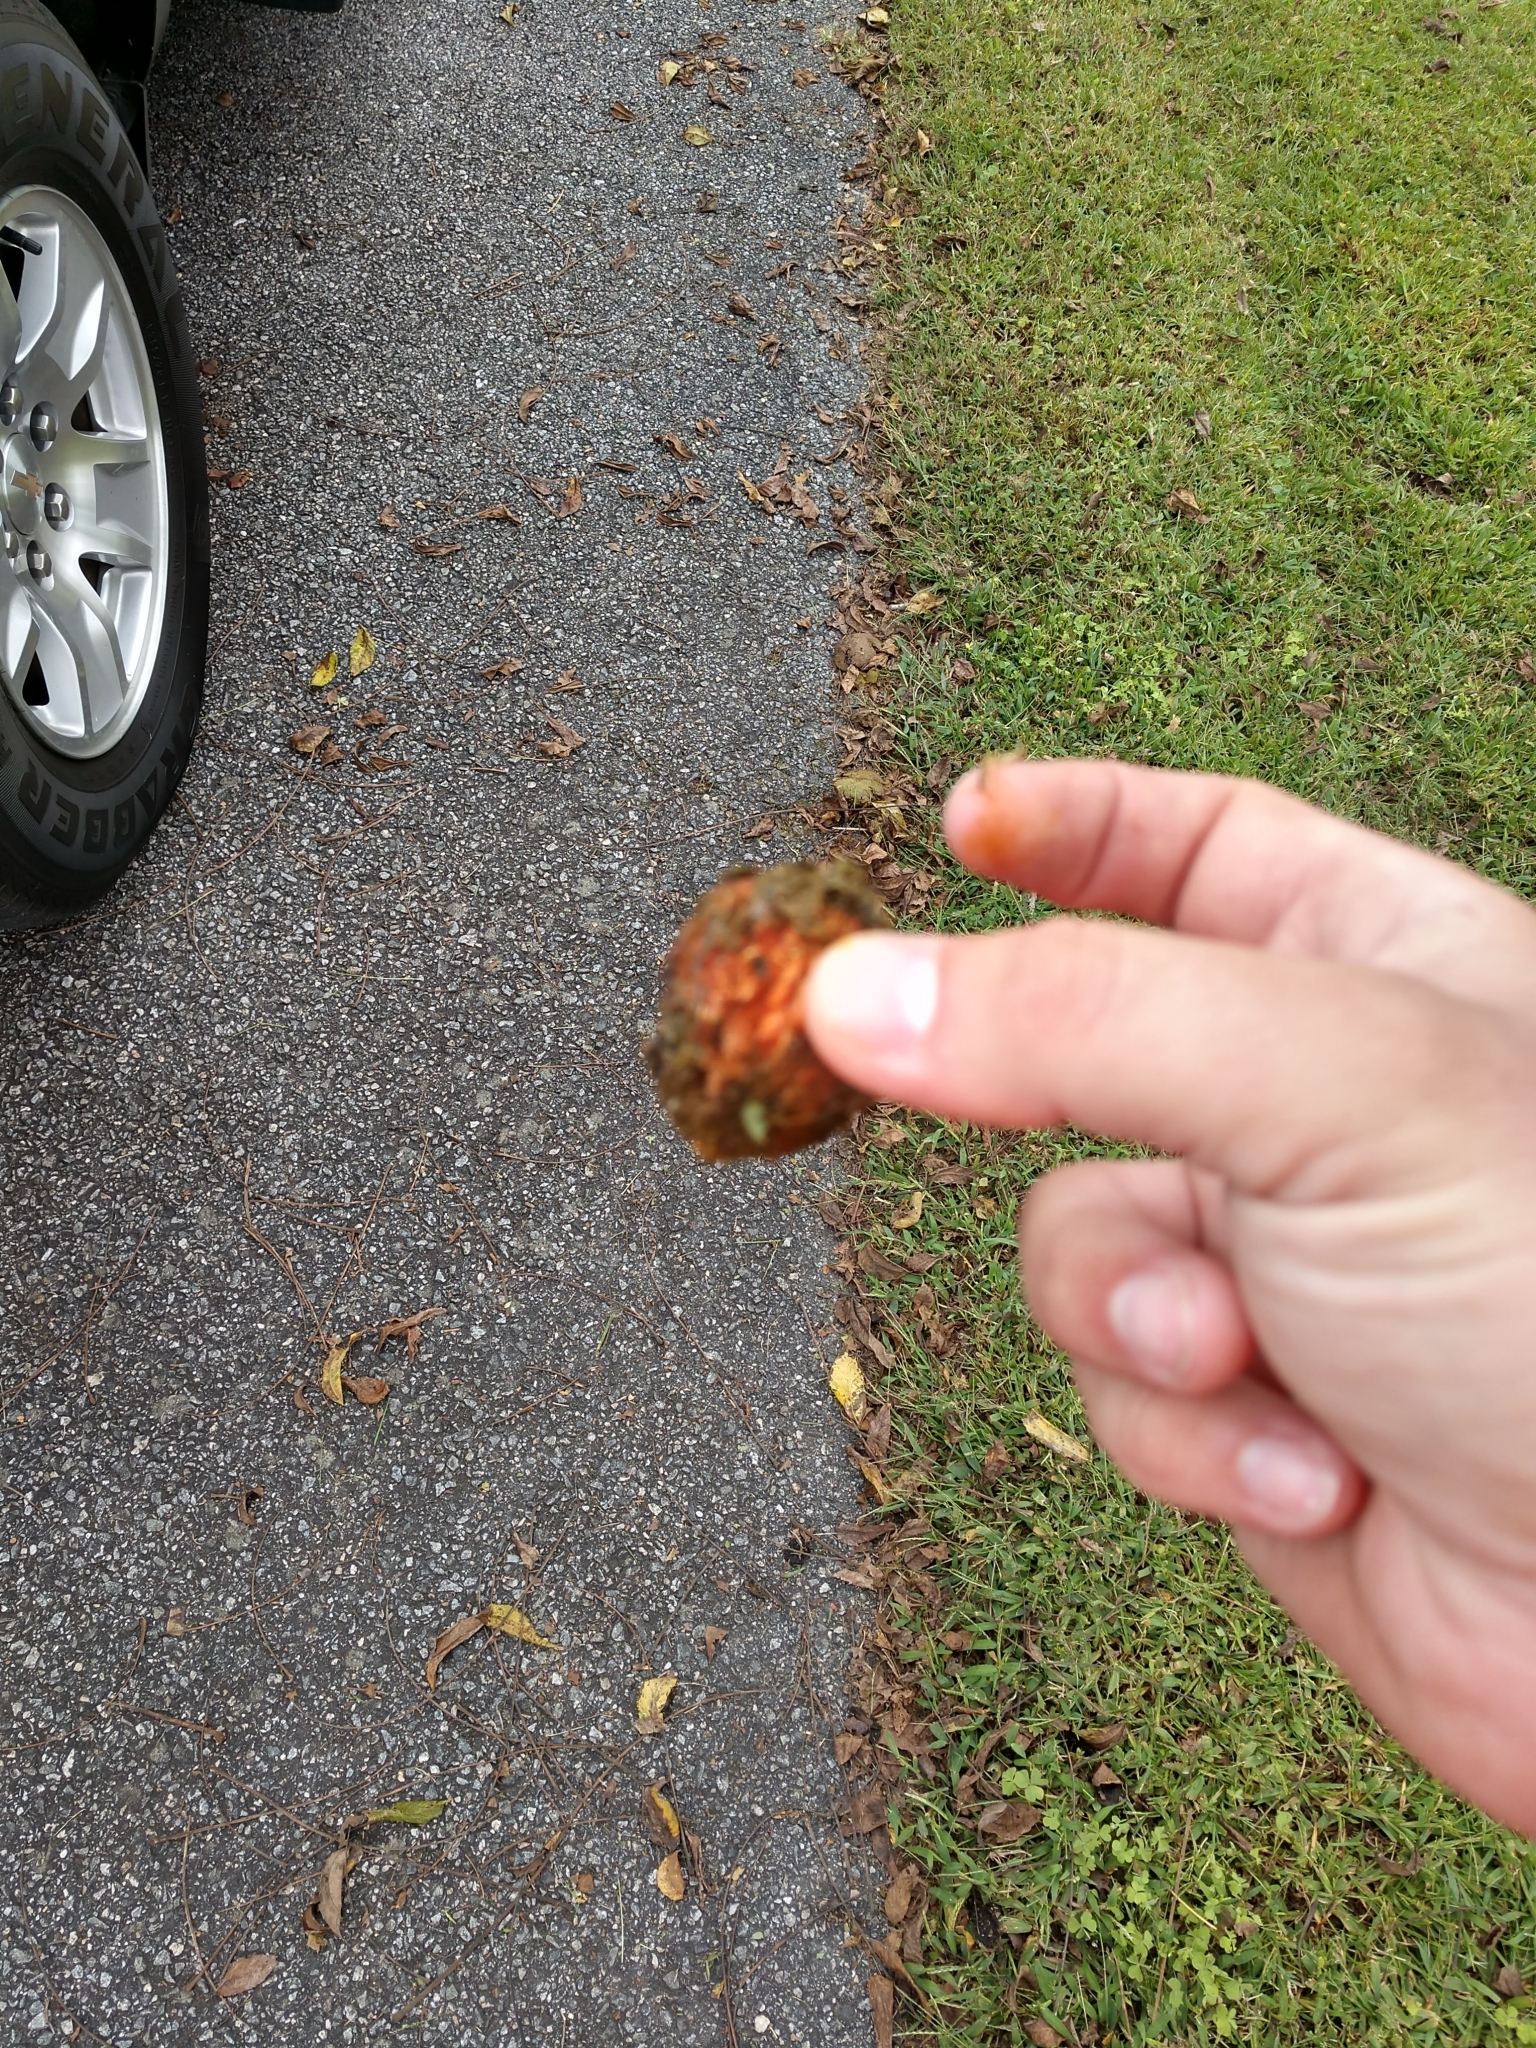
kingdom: Plantae
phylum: Tracheophyta
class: Magnoliopsida
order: Fagales
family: Juglandaceae
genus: Juglans
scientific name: Juglans nigra
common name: Black walnut
